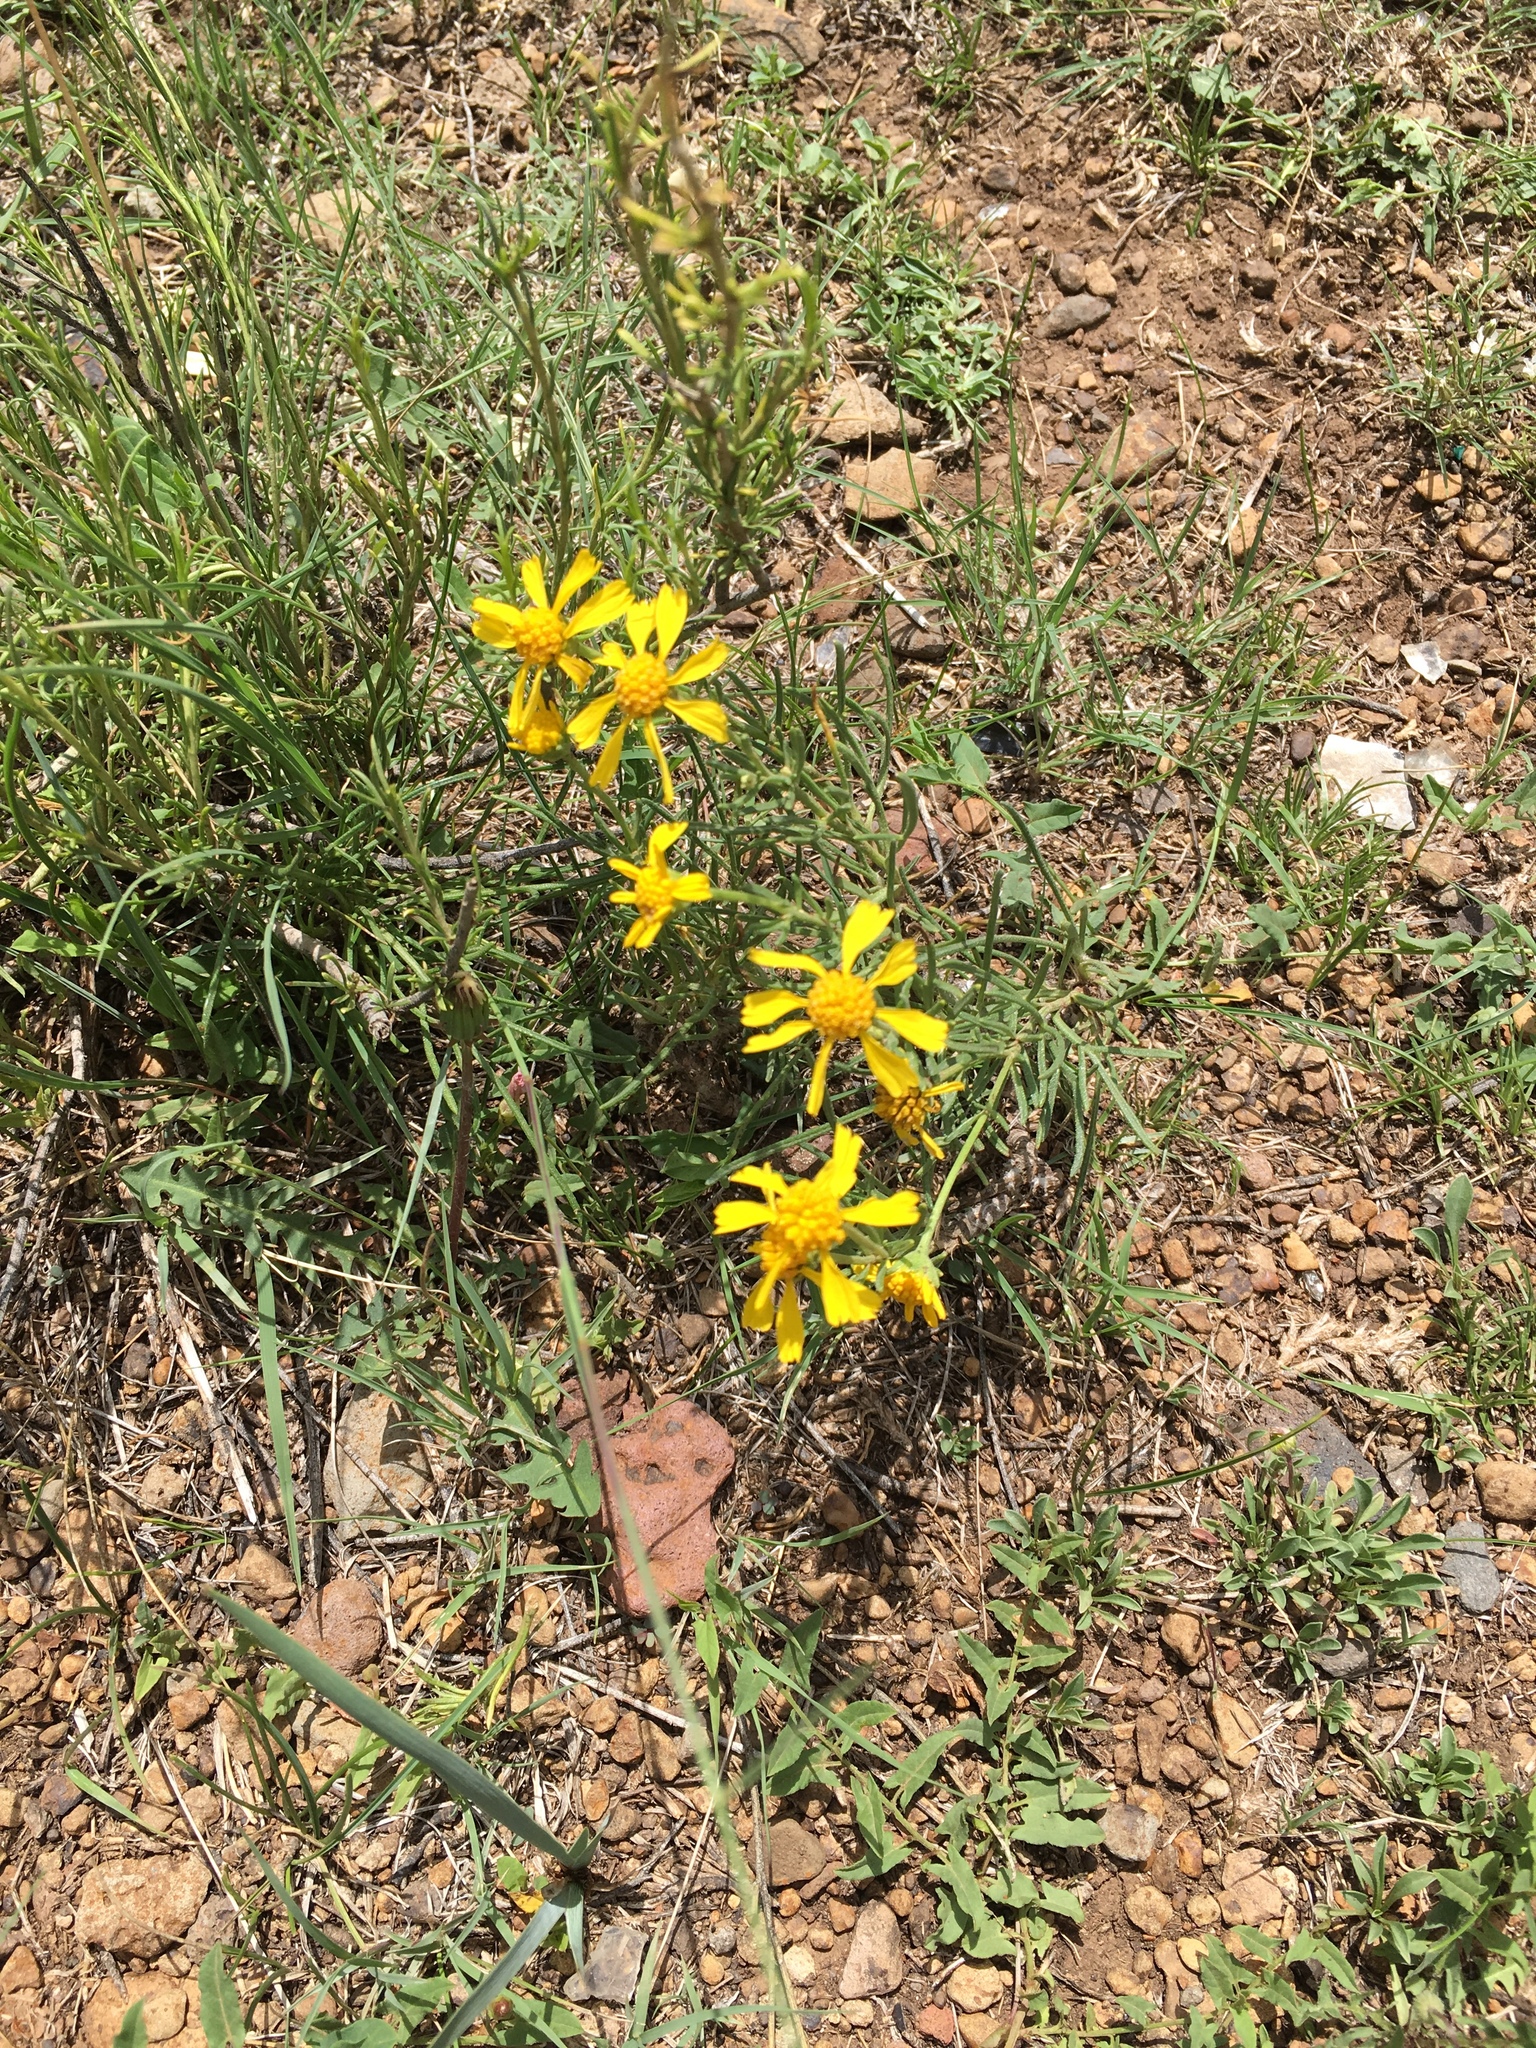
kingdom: Plantae
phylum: Tracheophyta
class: Magnoliopsida
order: Asterales
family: Asteraceae
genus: Hymenoxys
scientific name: Hymenoxys richardsonii
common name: Pingue rubberweed
